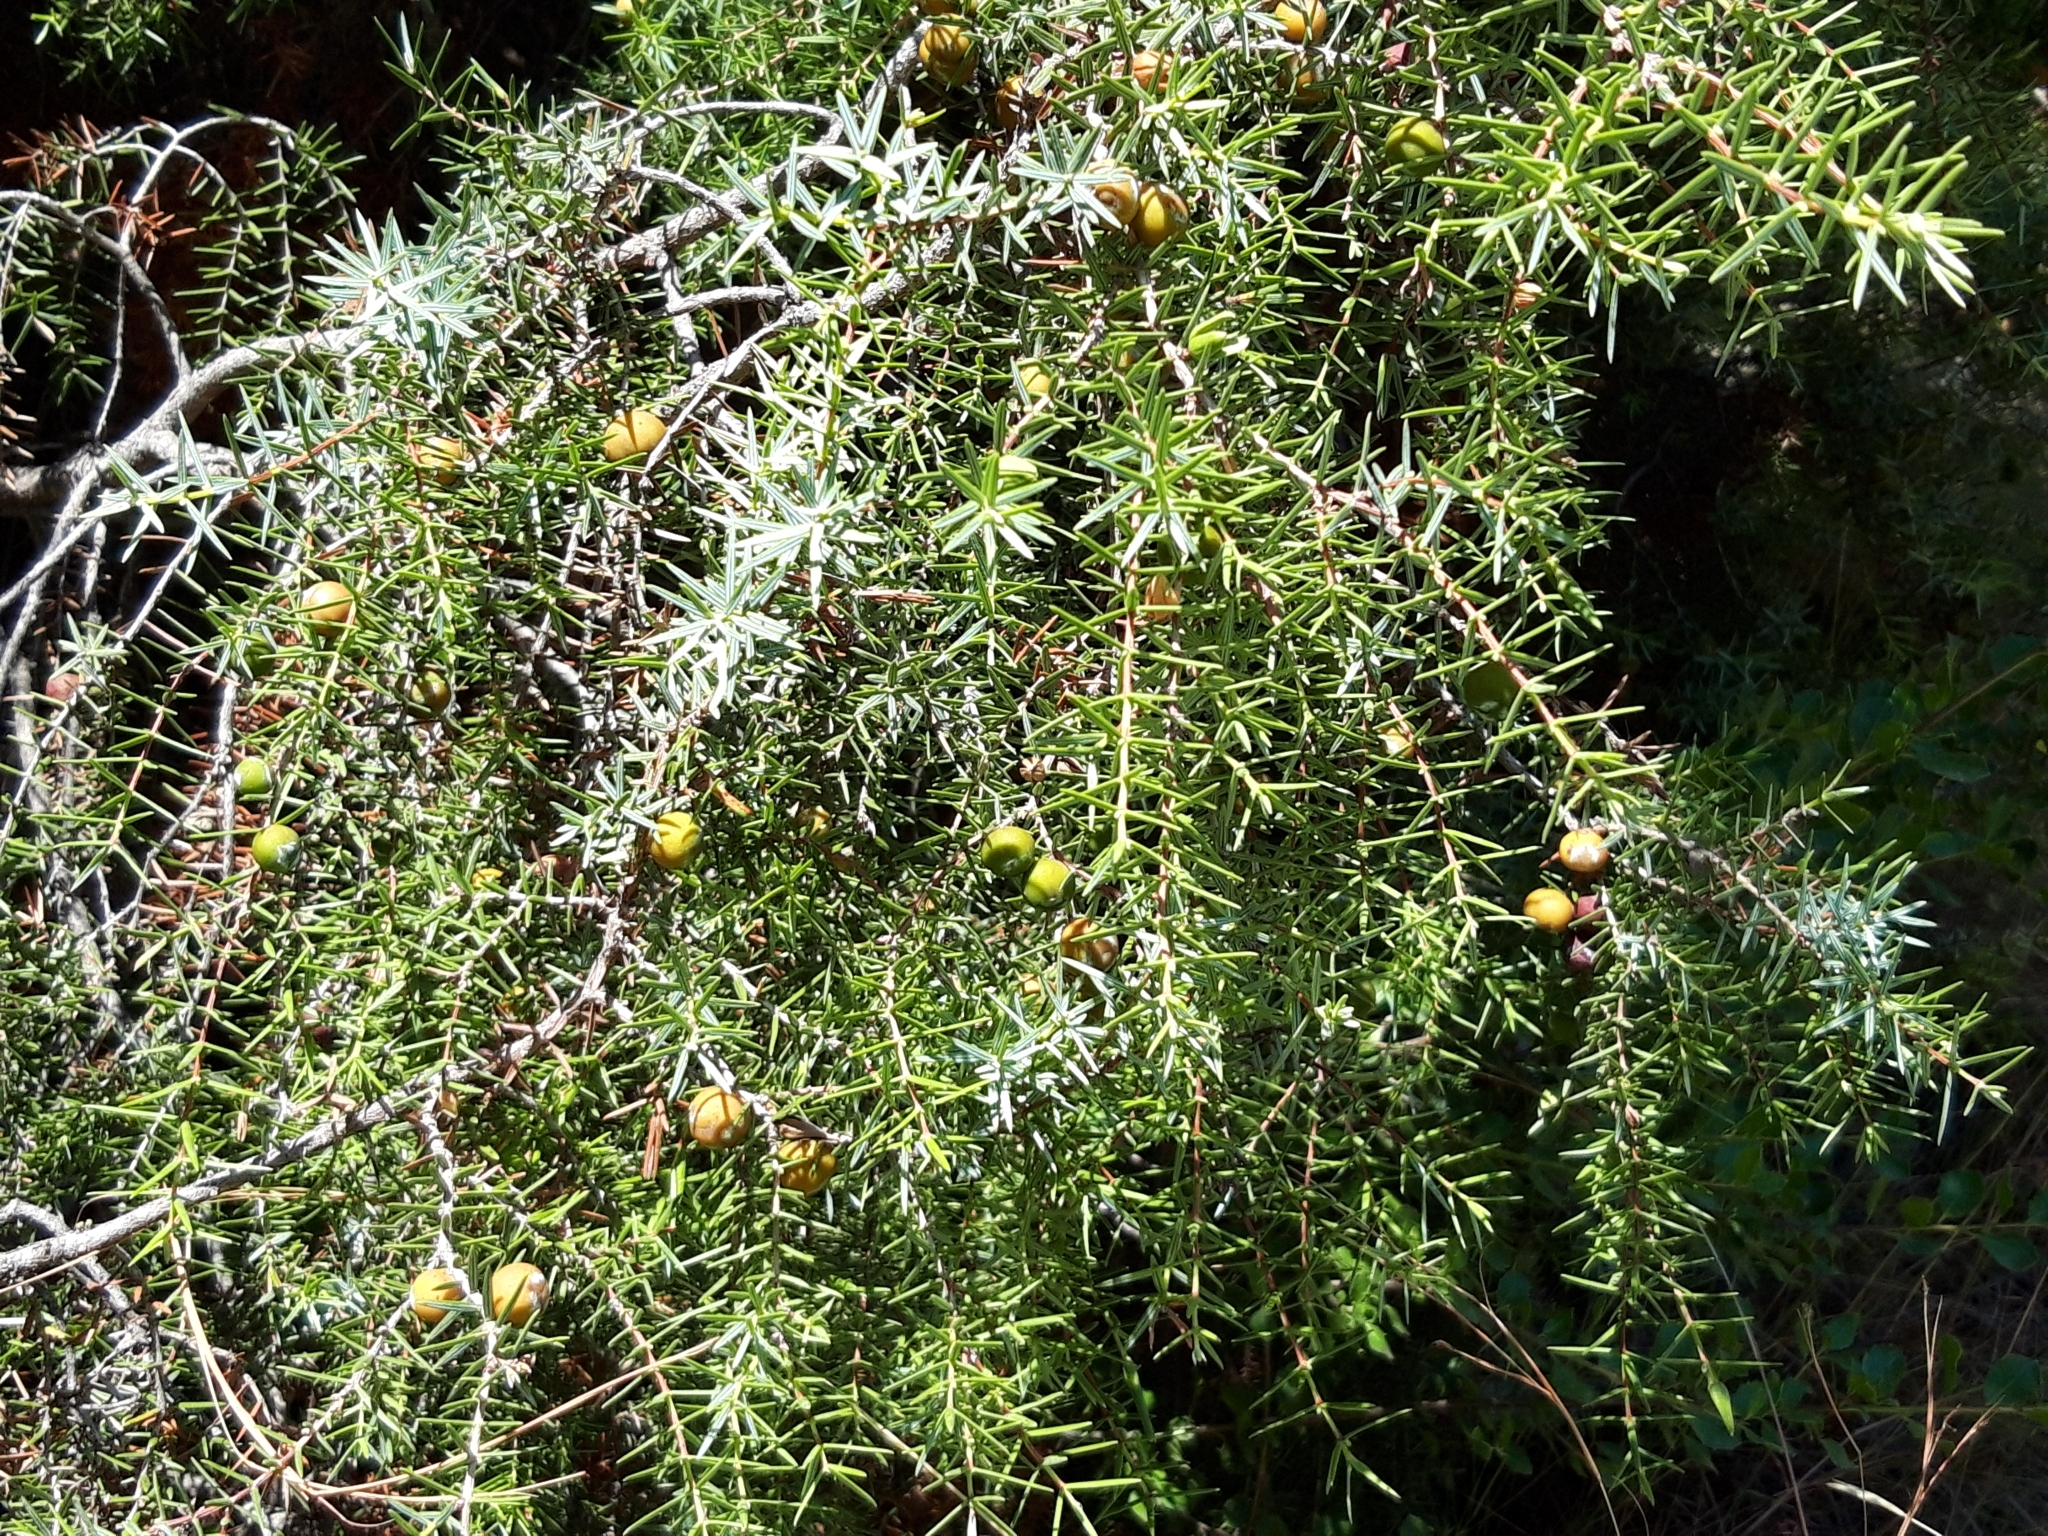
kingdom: Plantae
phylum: Tracheophyta
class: Pinopsida
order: Pinales
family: Cupressaceae
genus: Juniperus
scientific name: Juniperus oxycedrus
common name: Prickly juniper
